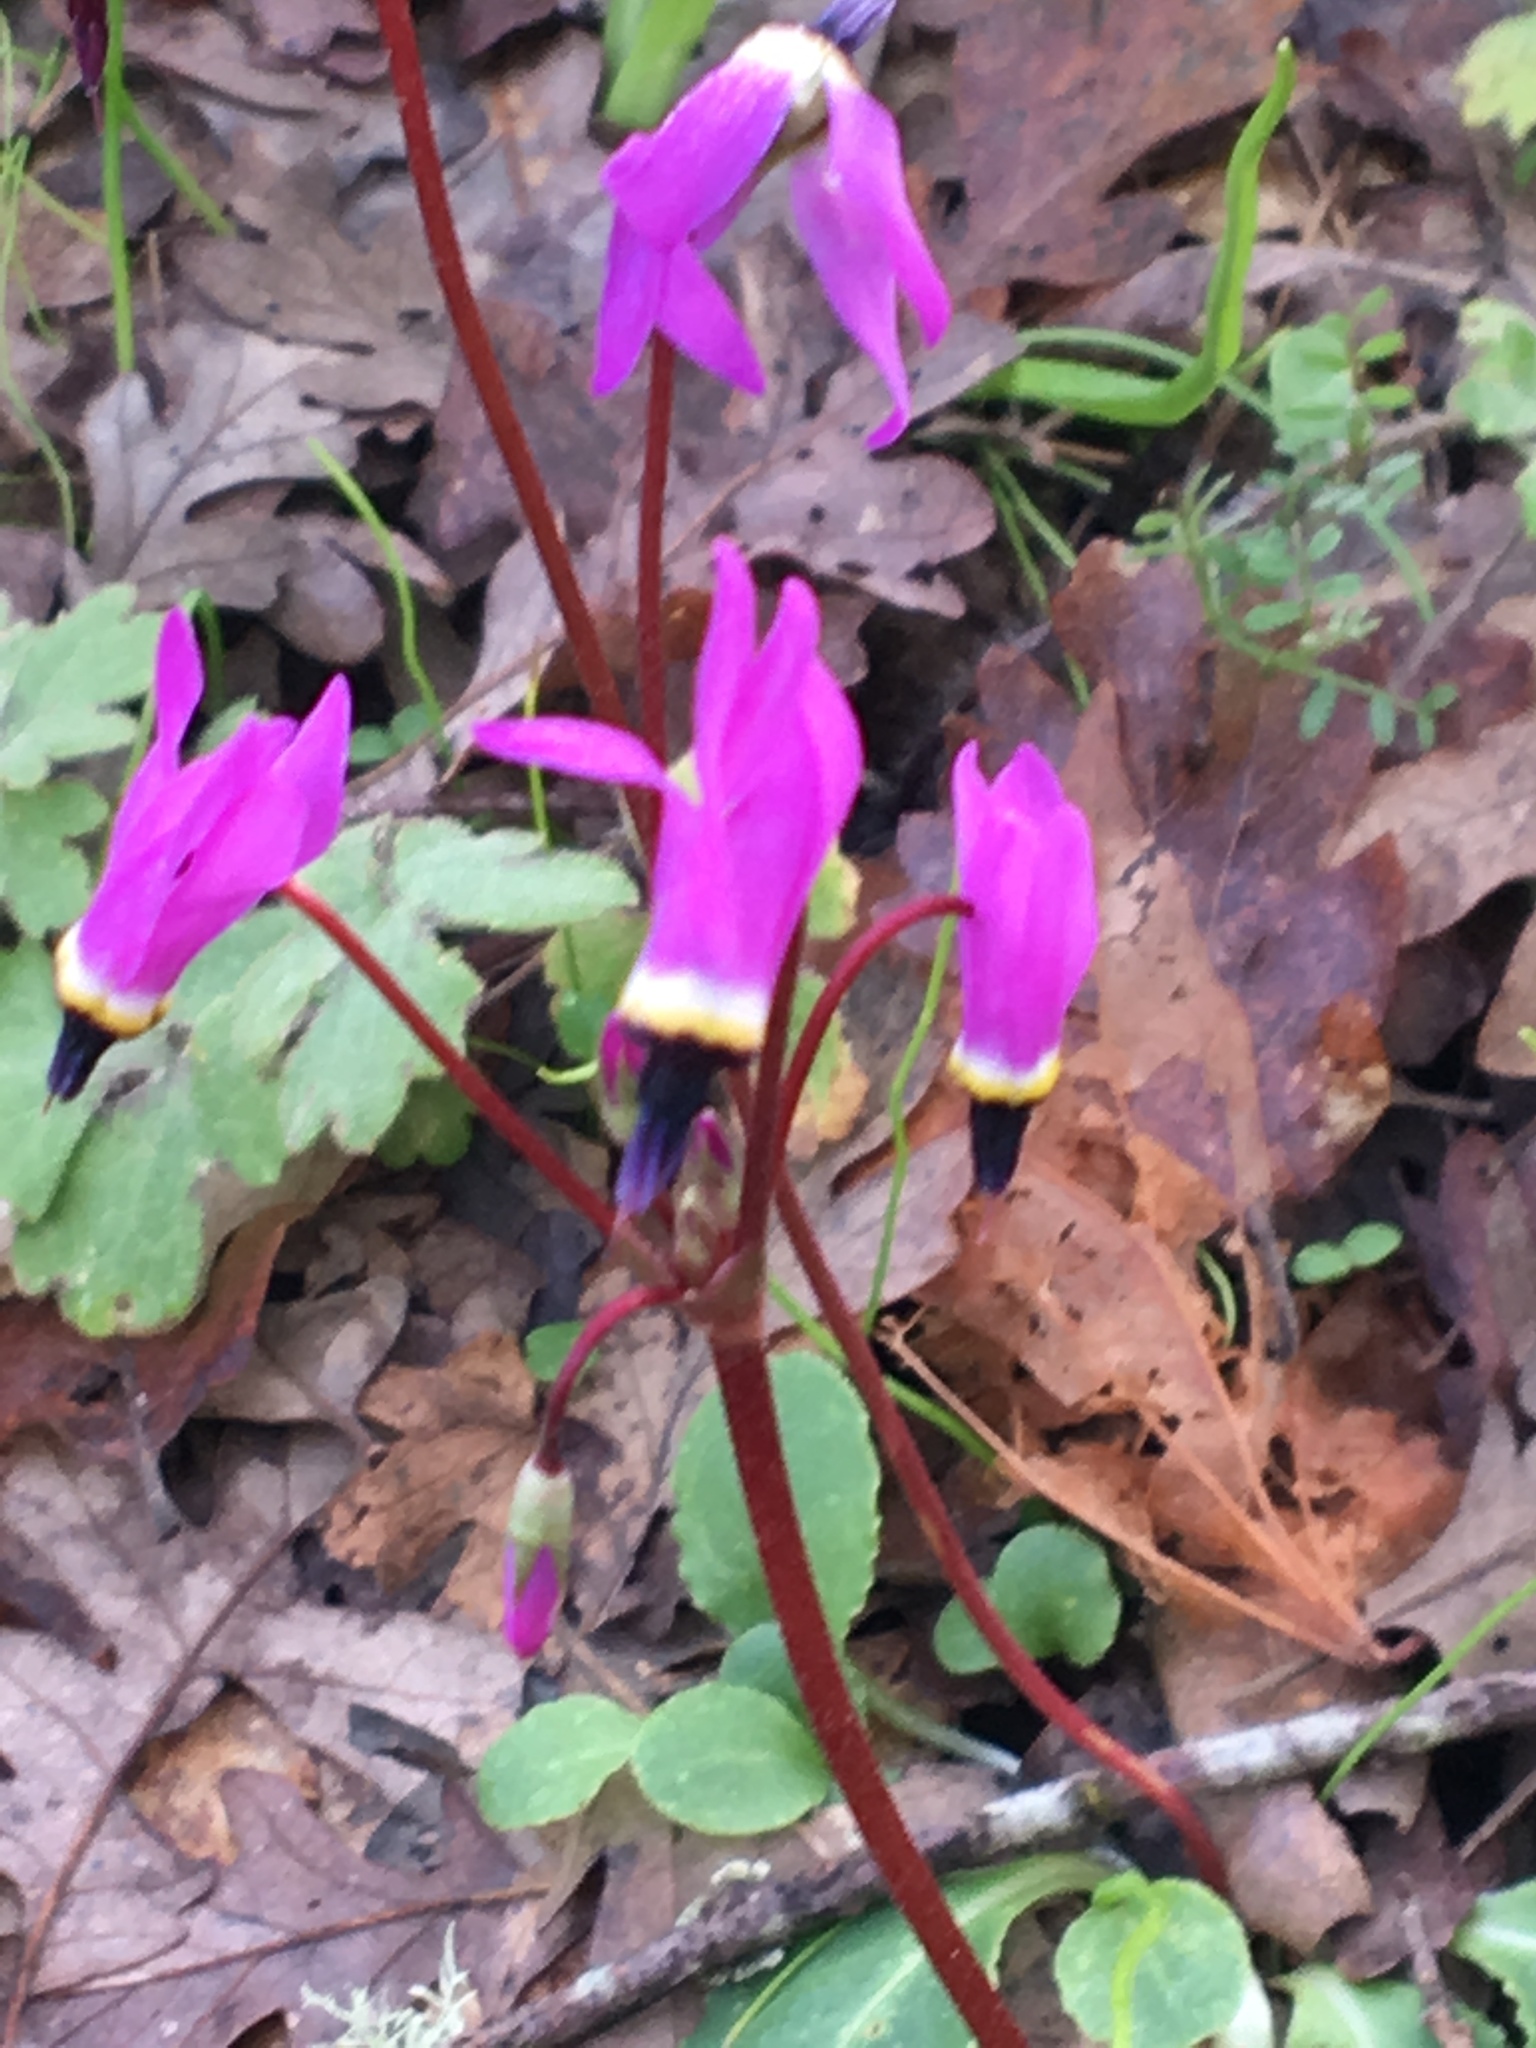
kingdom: Plantae
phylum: Tracheophyta
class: Magnoliopsida
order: Ericales
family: Primulaceae
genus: Dodecatheon
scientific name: Dodecatheon hendersonii
